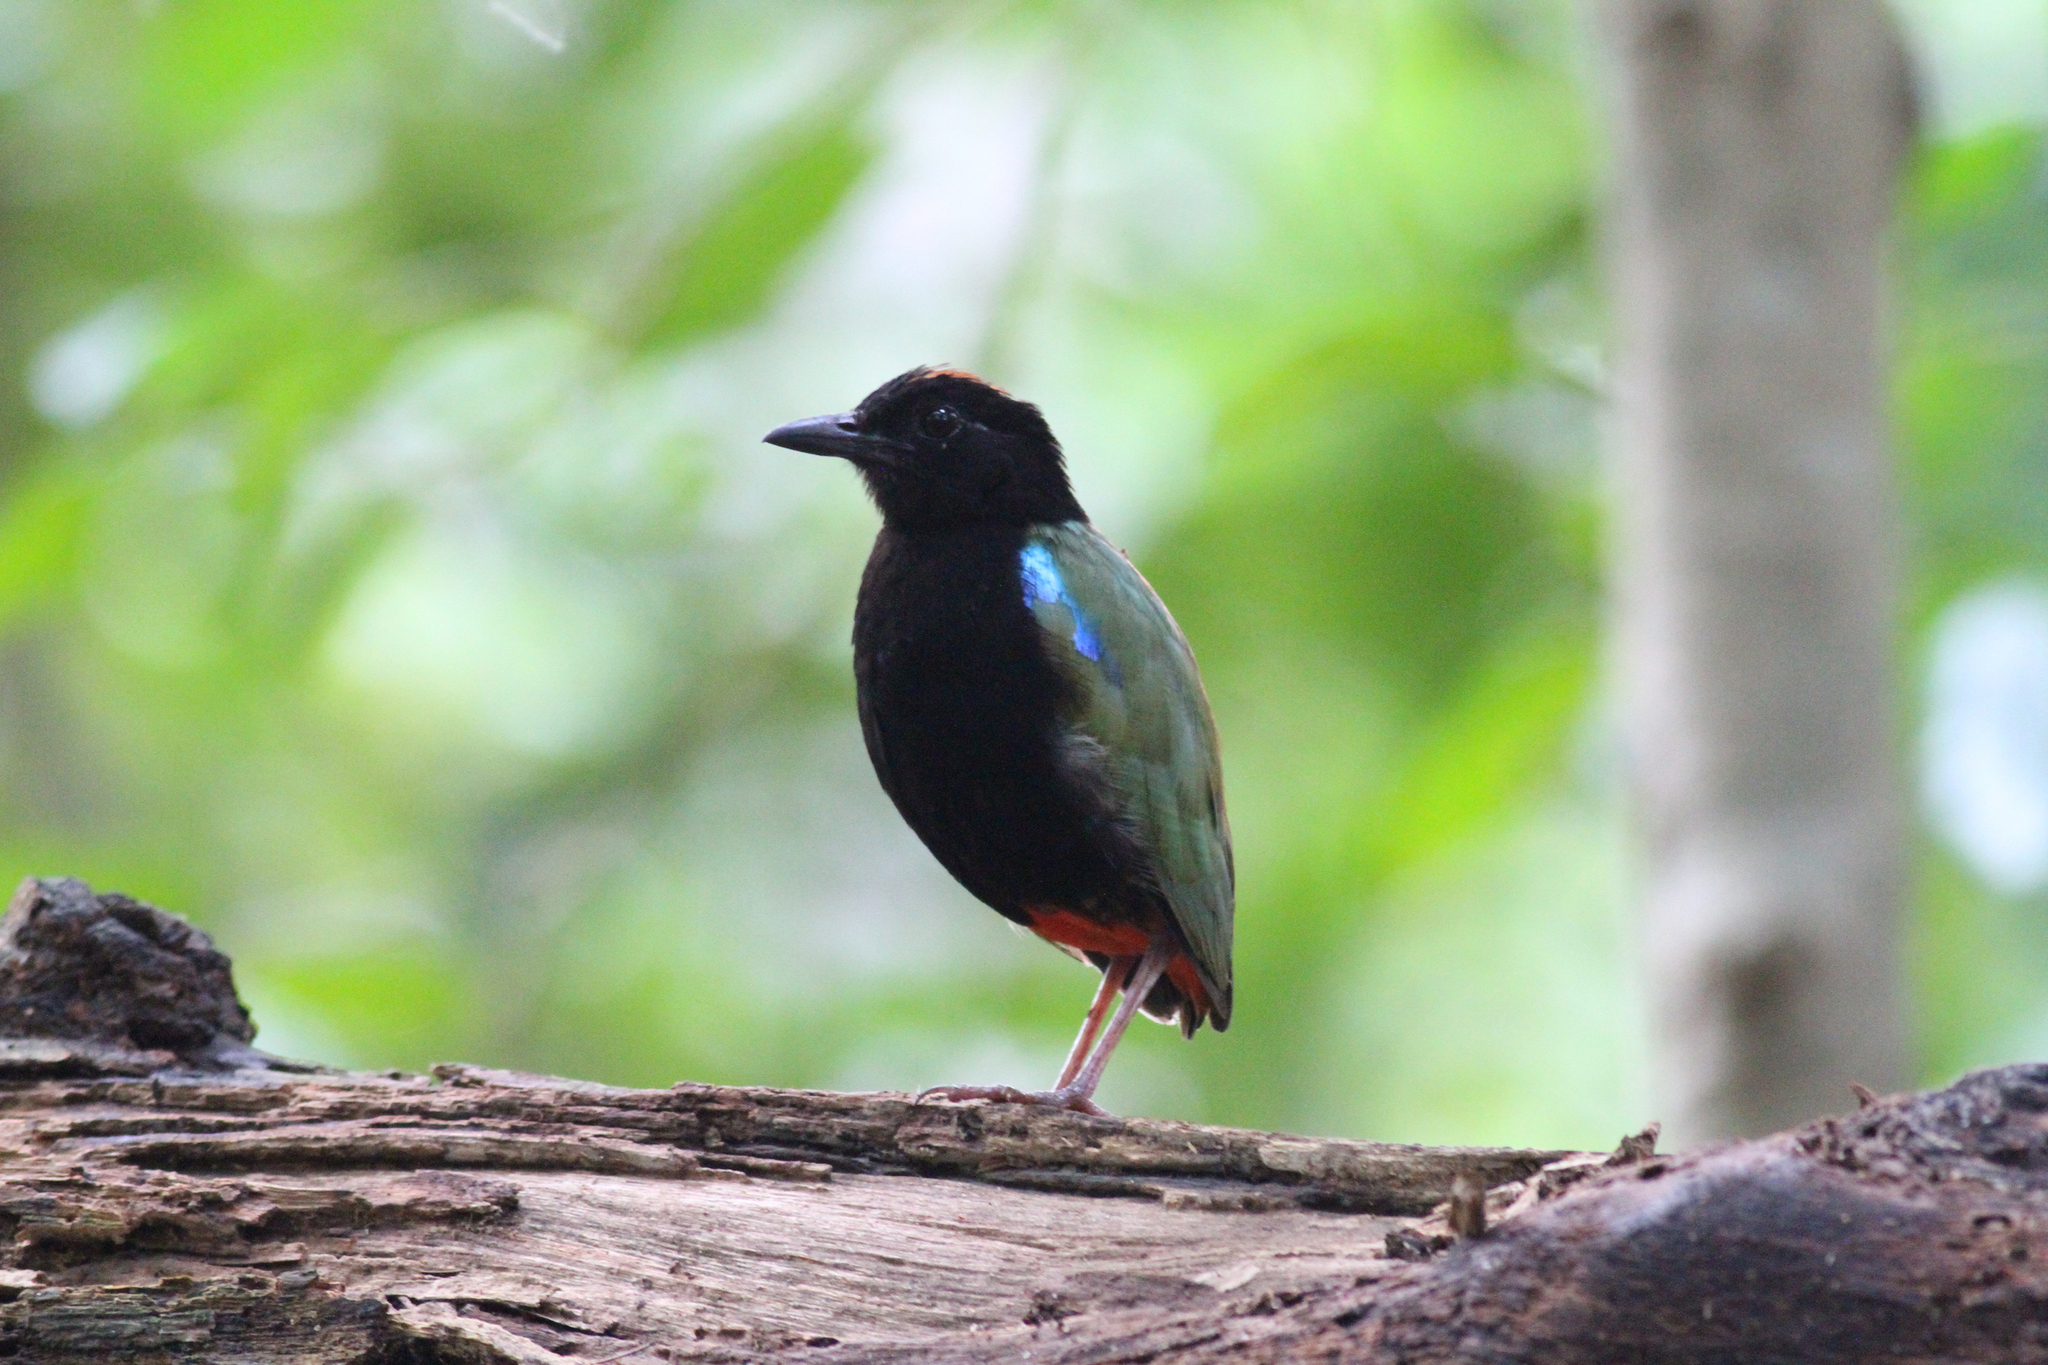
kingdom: Animalia
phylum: Chordata
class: Aves
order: Passeriformes
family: Pittidae
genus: Pitta
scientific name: Pitta iris
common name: Rainbow pitta
